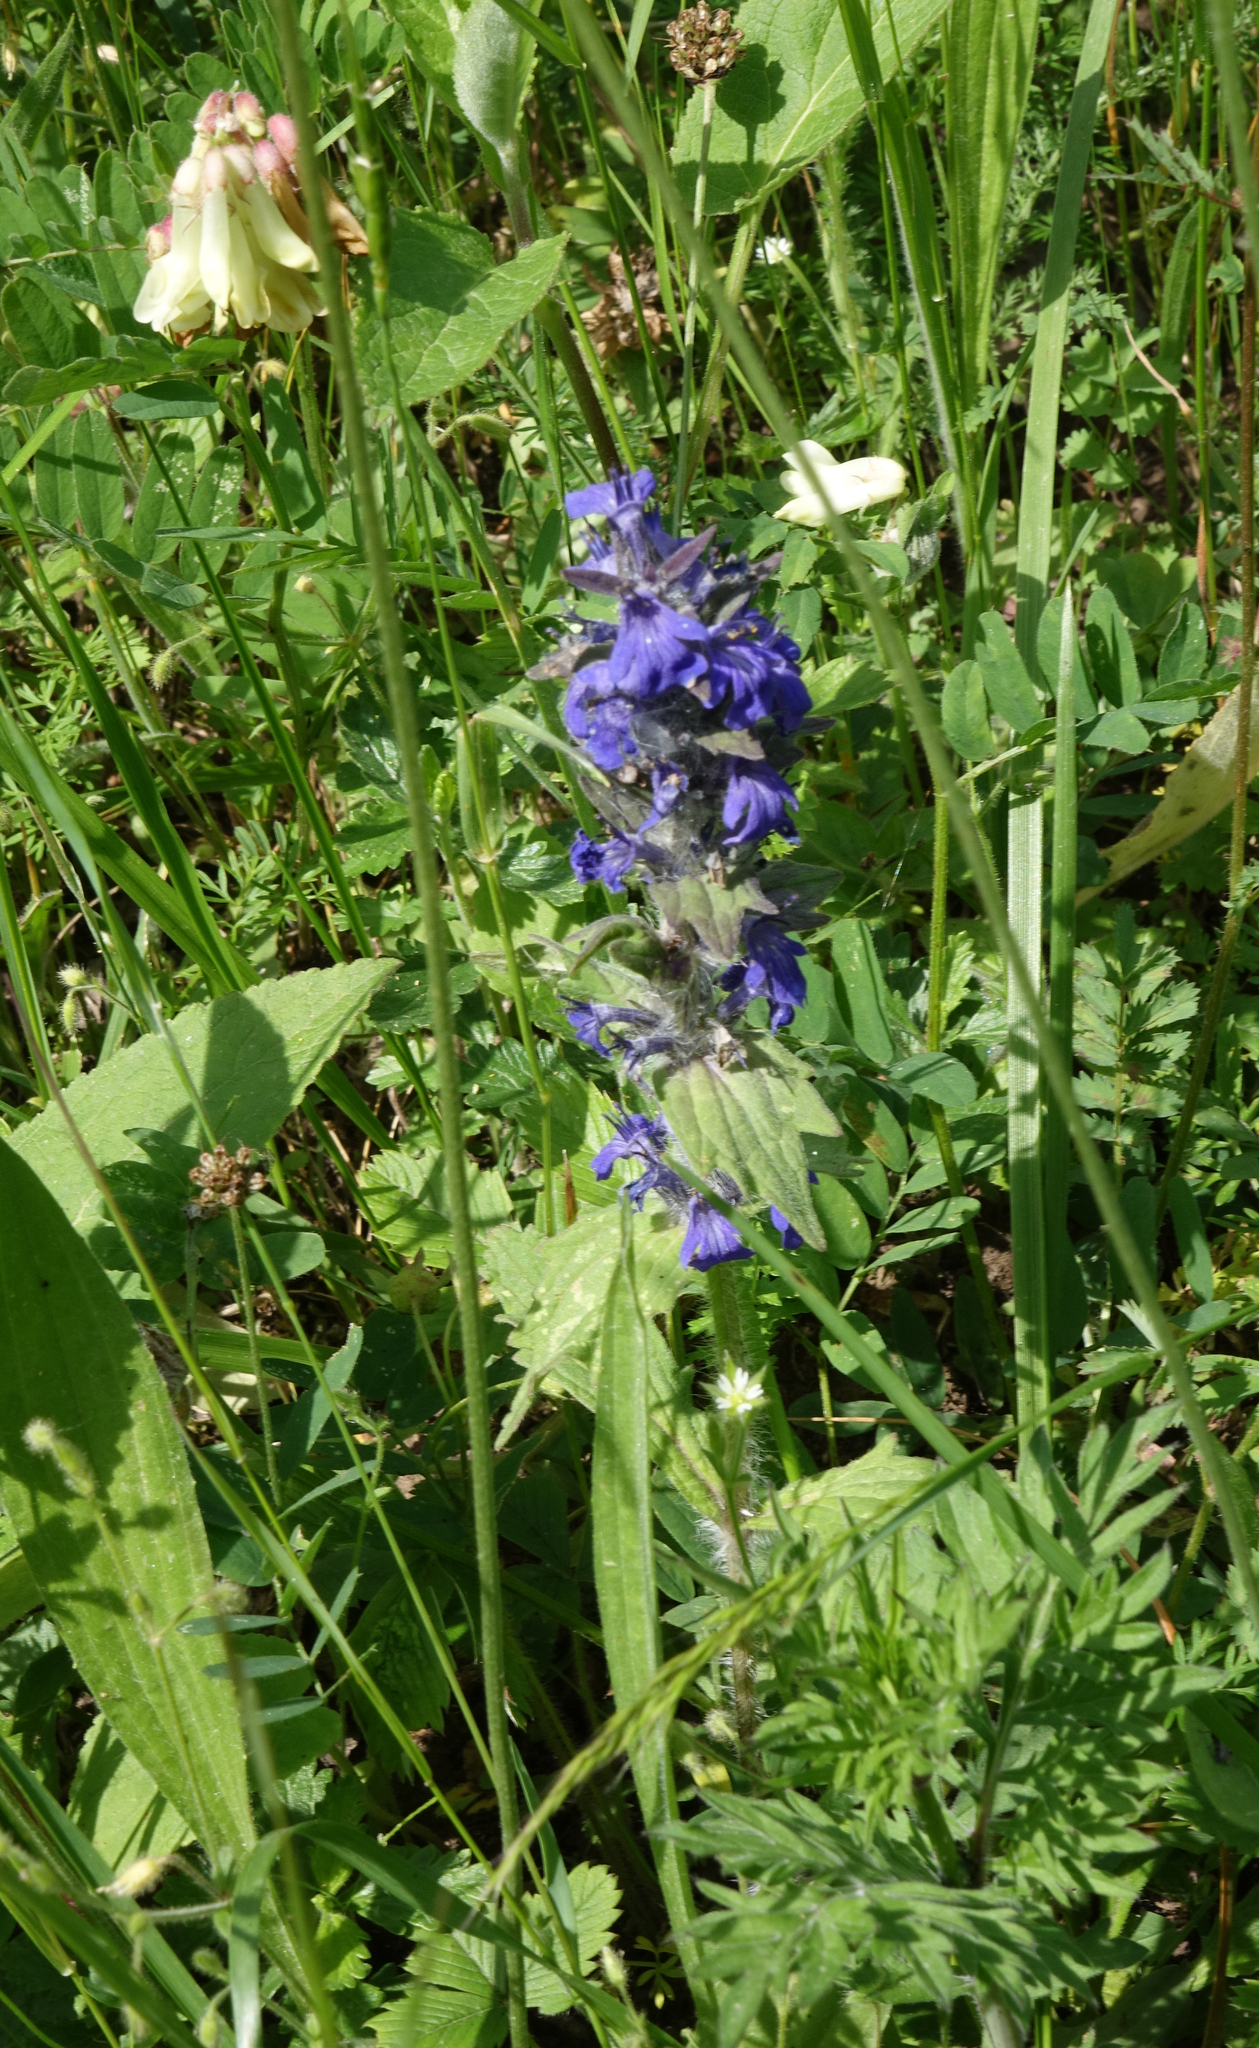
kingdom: Plantae
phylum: Tracheophyta
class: Magnoliopsida
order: Lamiales
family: Lamiaceae
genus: Ajuga
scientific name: Ajuga genevensis
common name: Blue bugle
